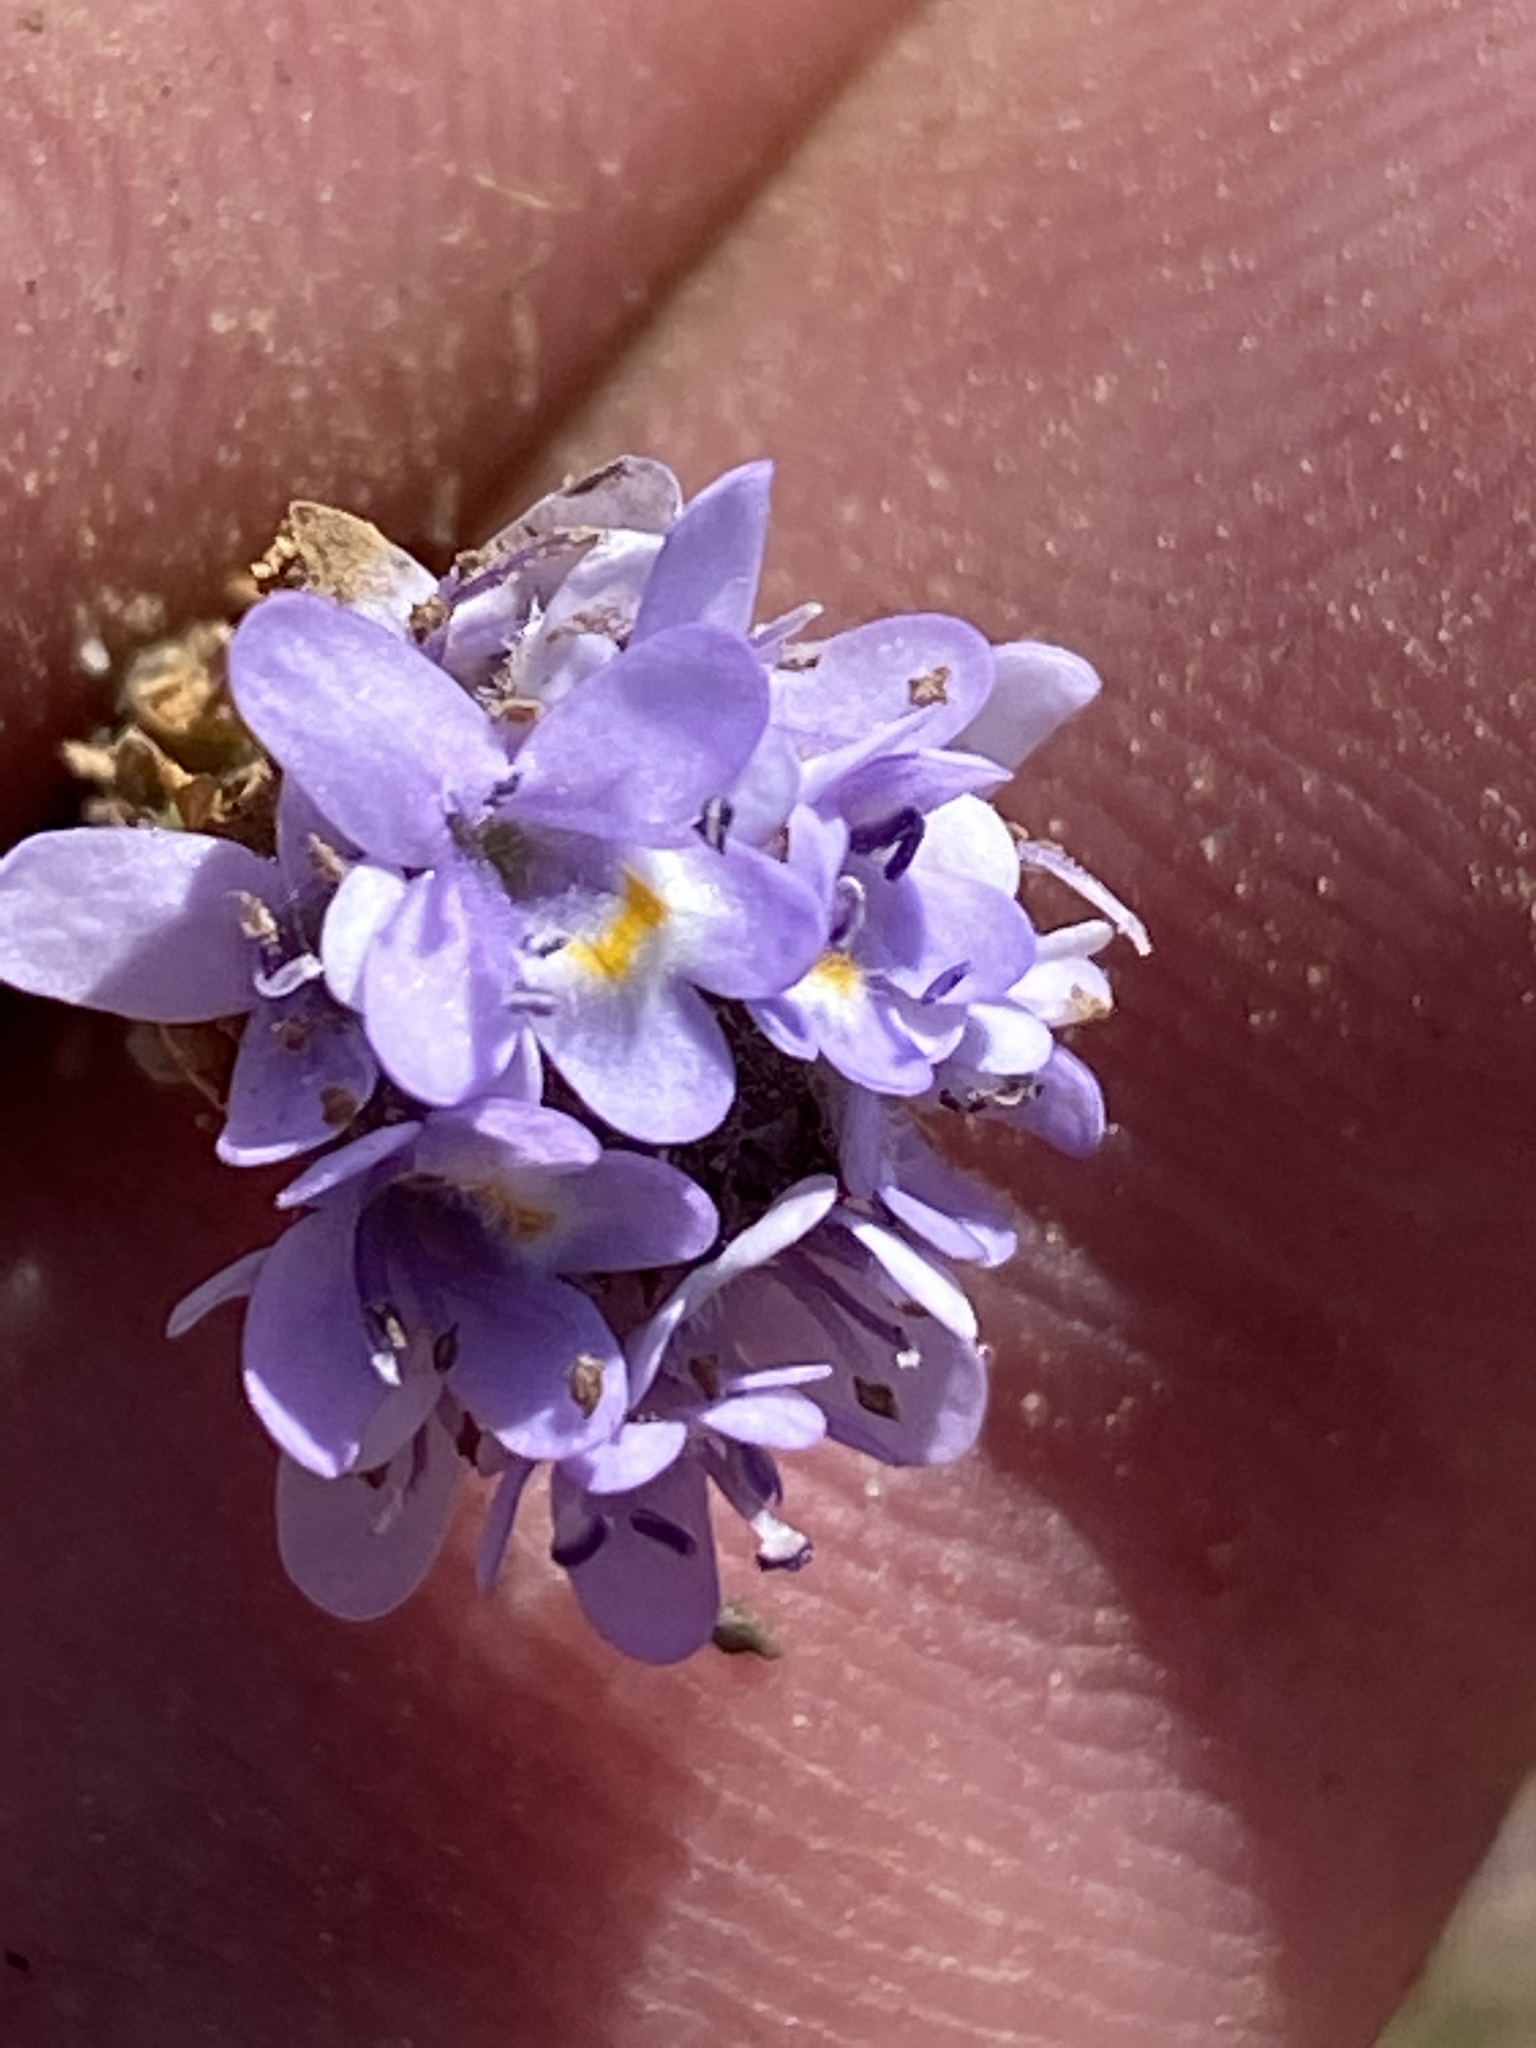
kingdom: Plantae
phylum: Tracheophyta
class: Magnoliopsida
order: Lamiales
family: Scrophulariaceae
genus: Pseudoselago
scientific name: Pseudoselago bella
